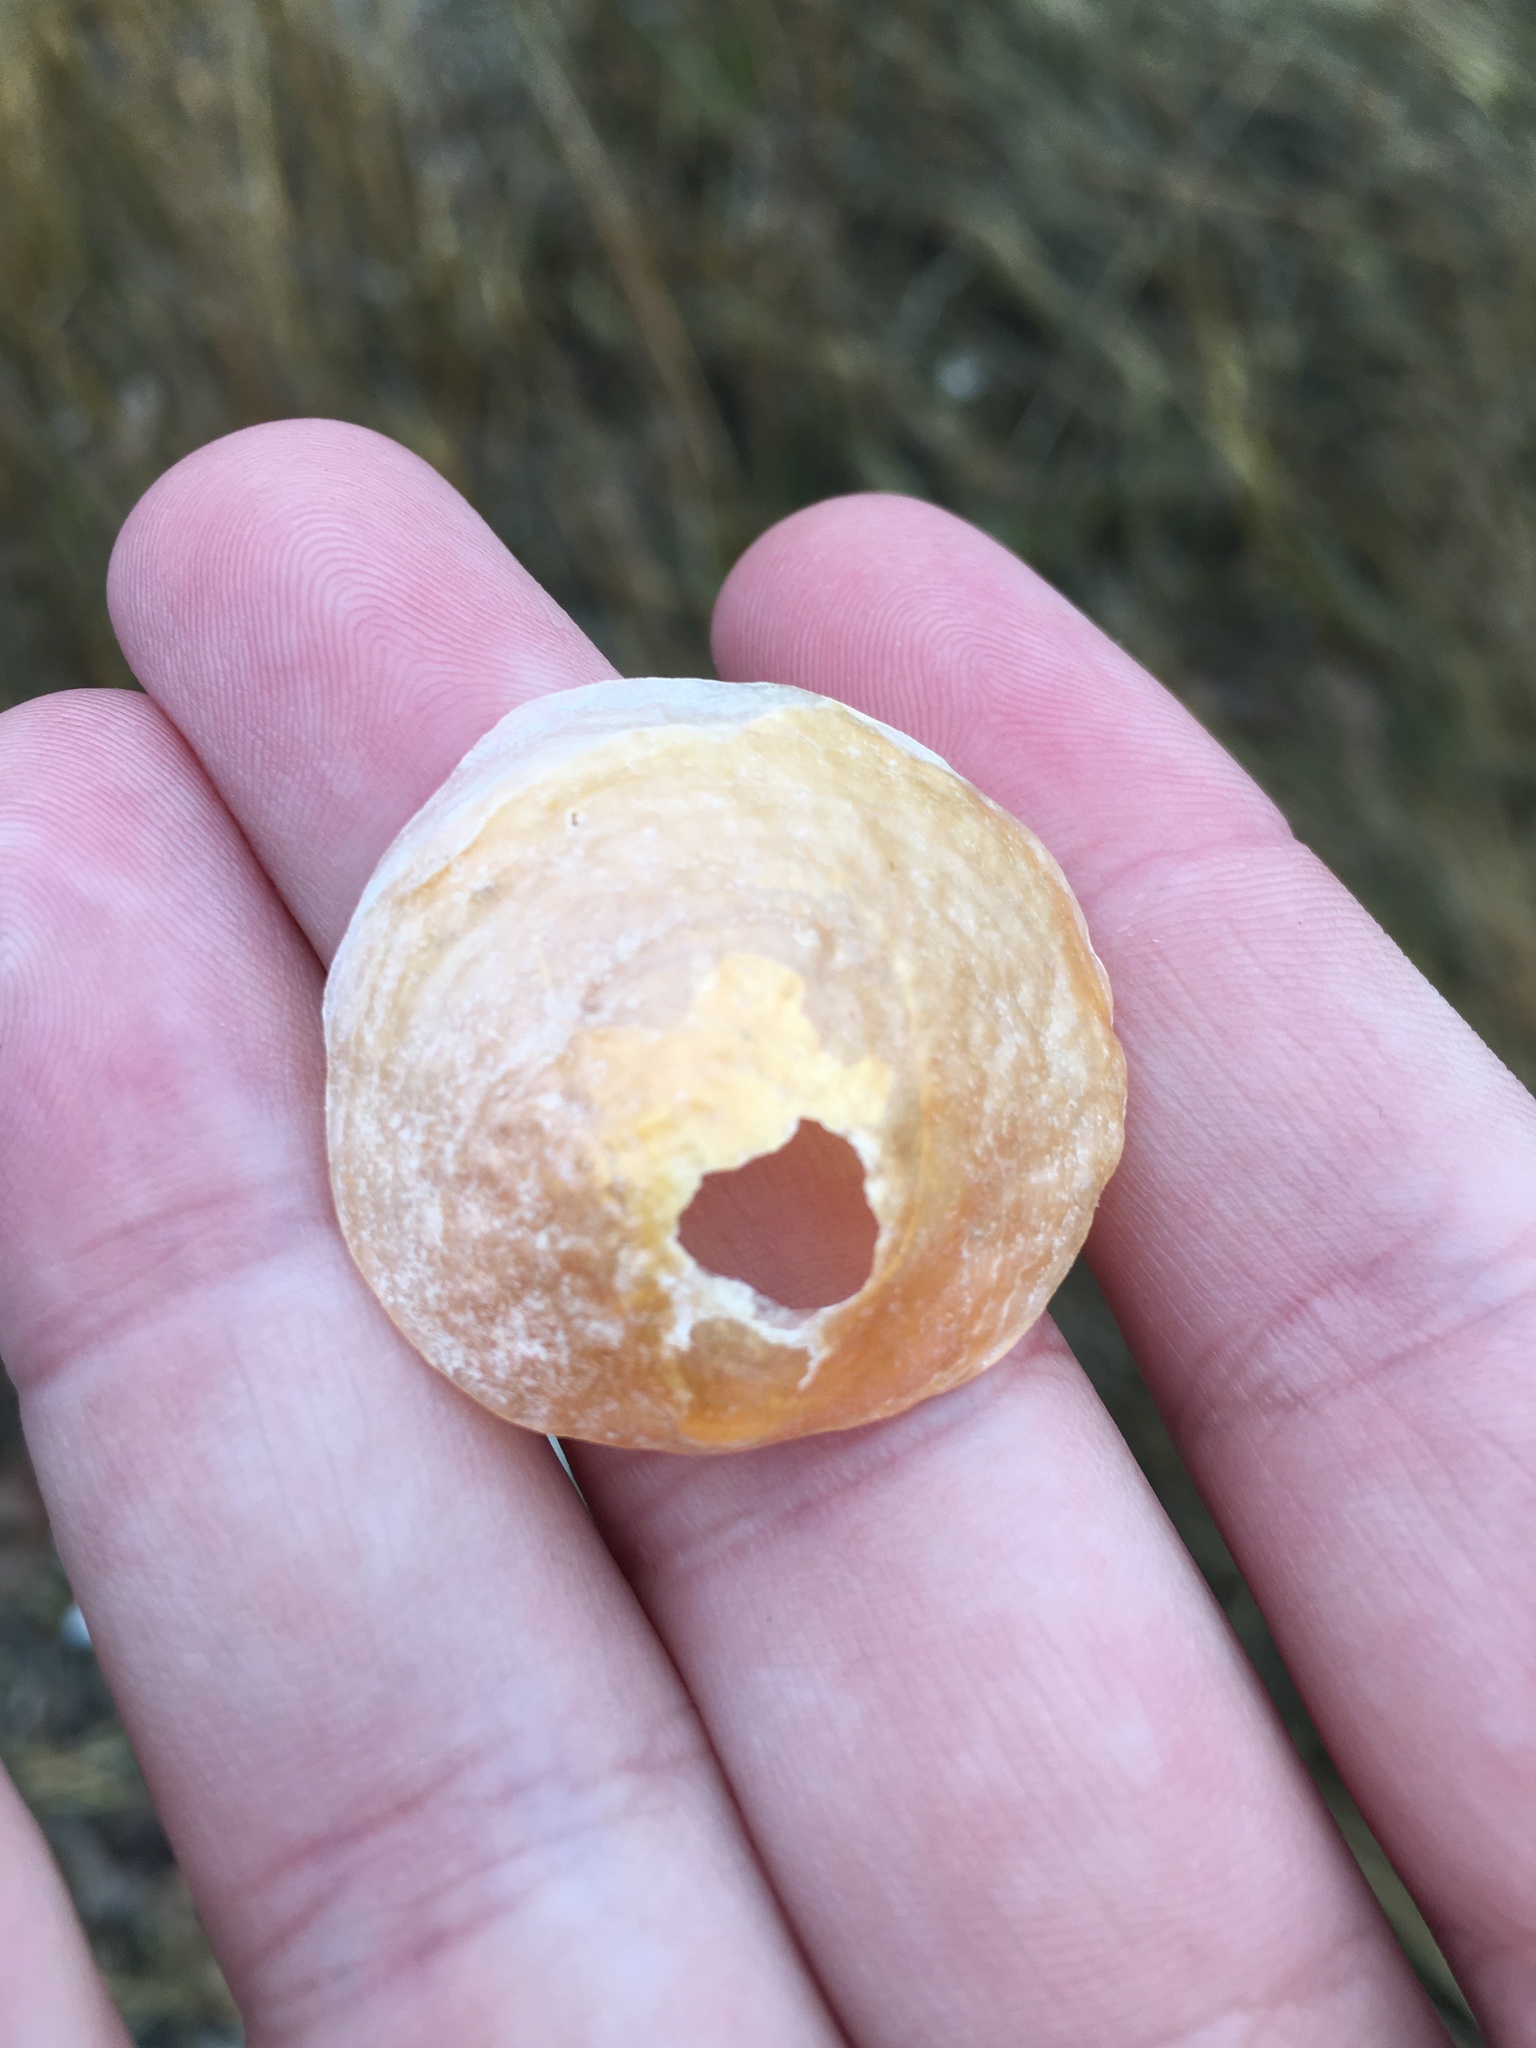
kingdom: Animalia
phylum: Mollusca
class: Bivalvia
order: Pectinida
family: Anomiidae
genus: Anomia
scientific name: Anomia simplex
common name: Common jingle shell
